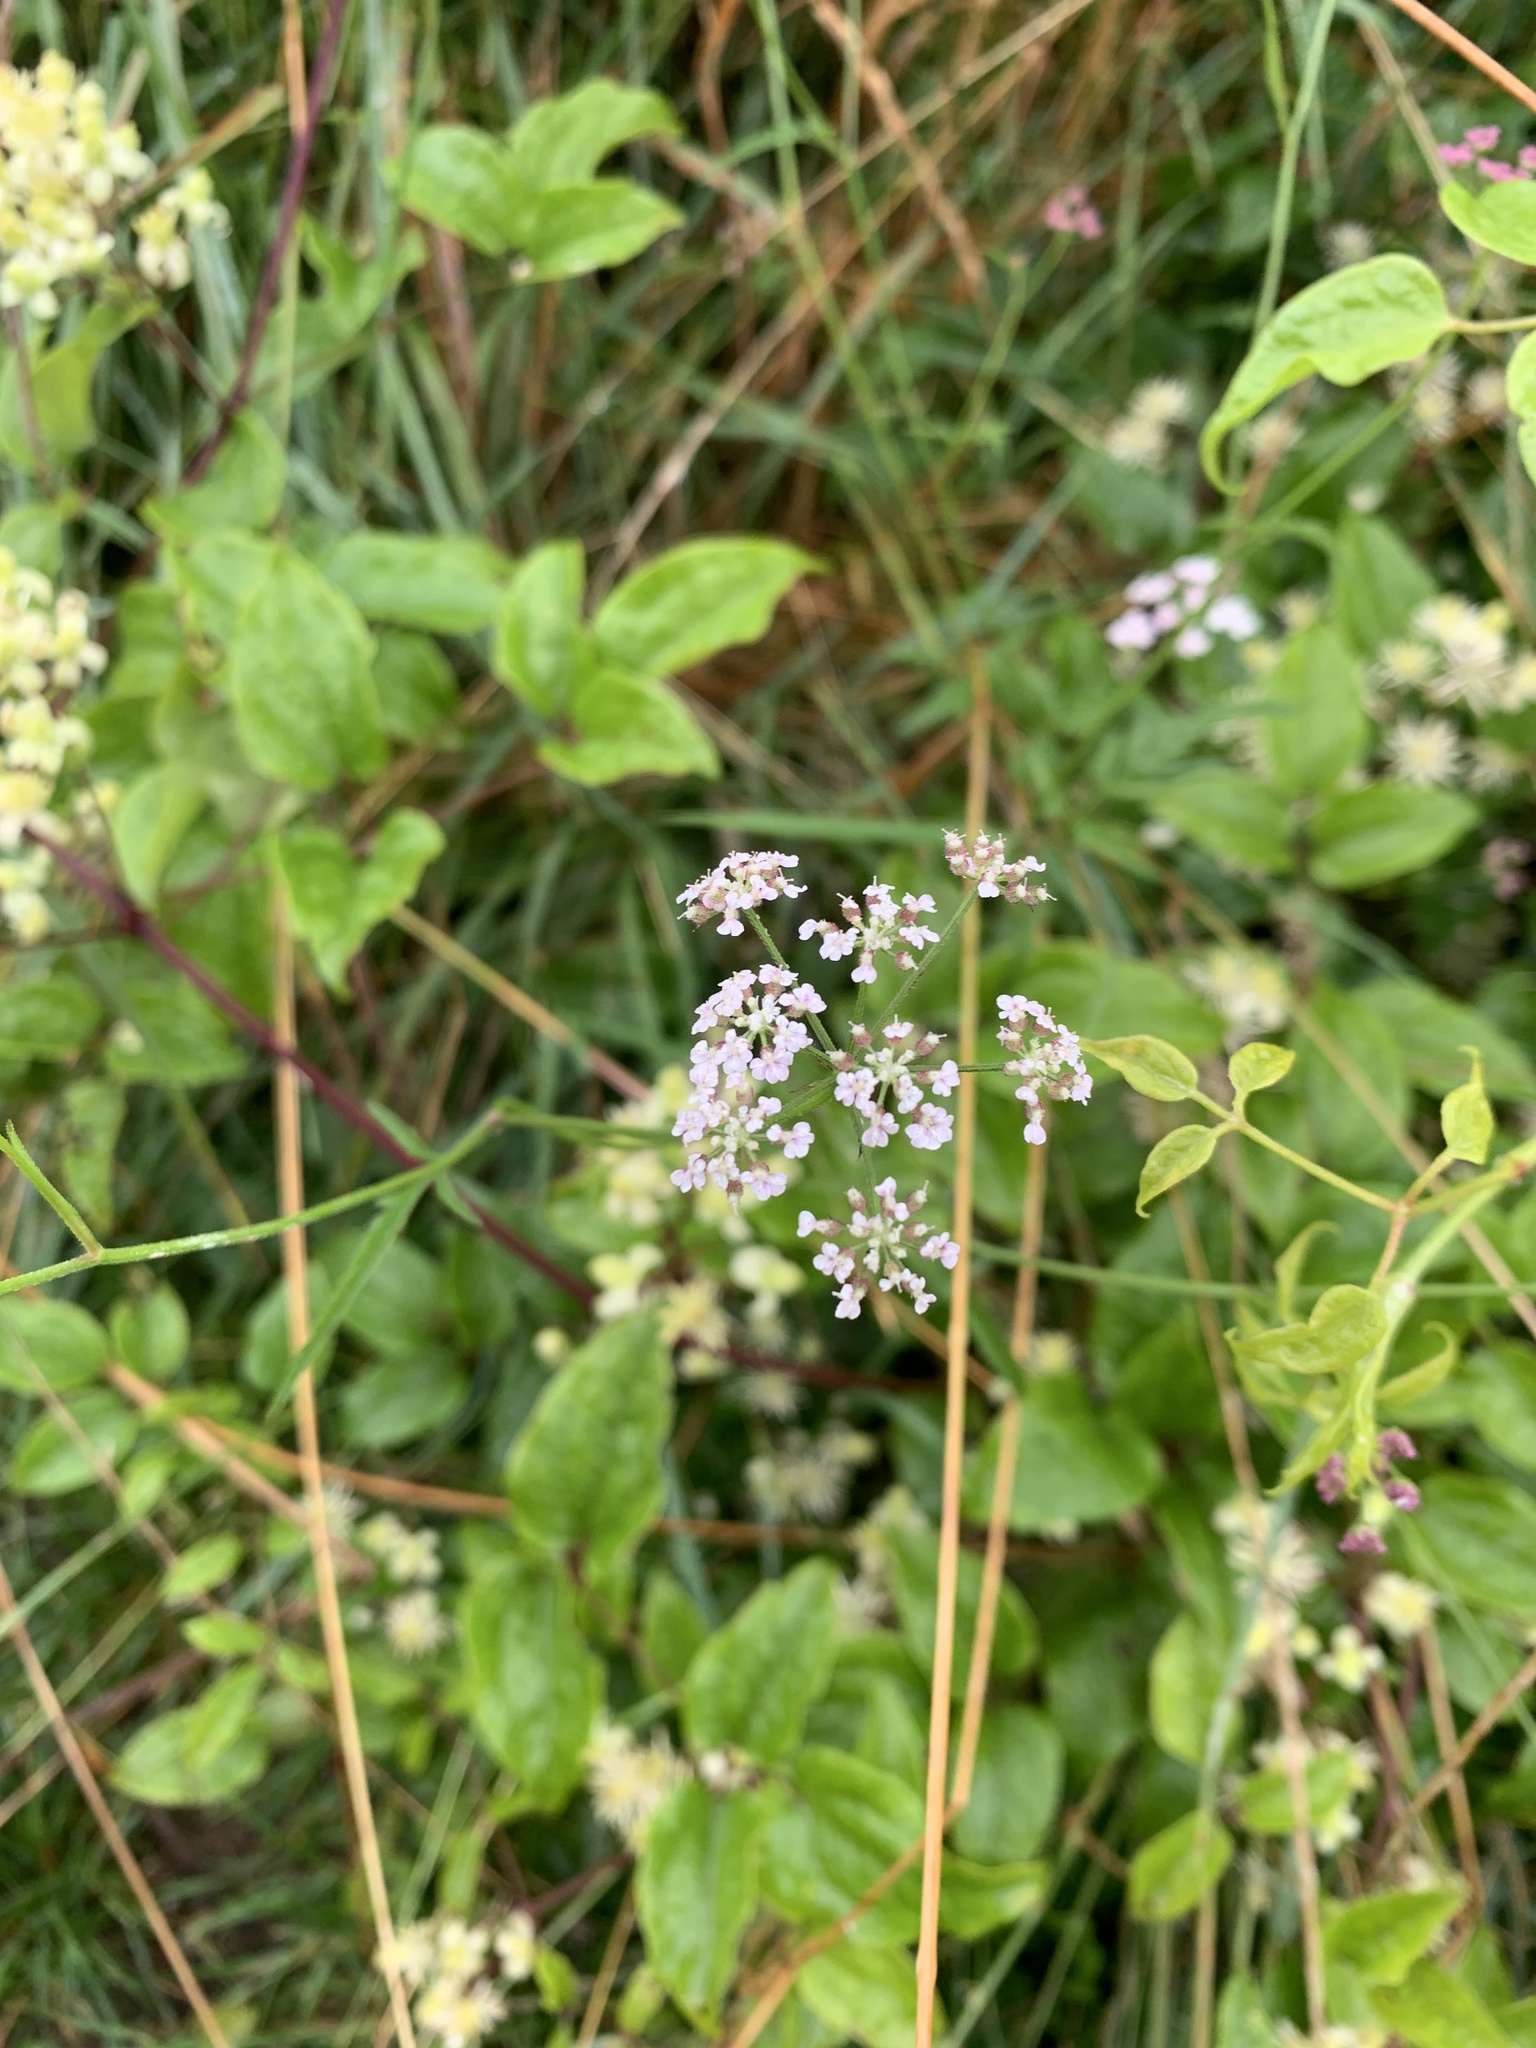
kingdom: Plantae
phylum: Tracheophyta
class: Magnoliopsida
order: Apiales
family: Apiaceae
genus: Torilis
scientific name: Torilis japonica
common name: Upright hedge-parsley
